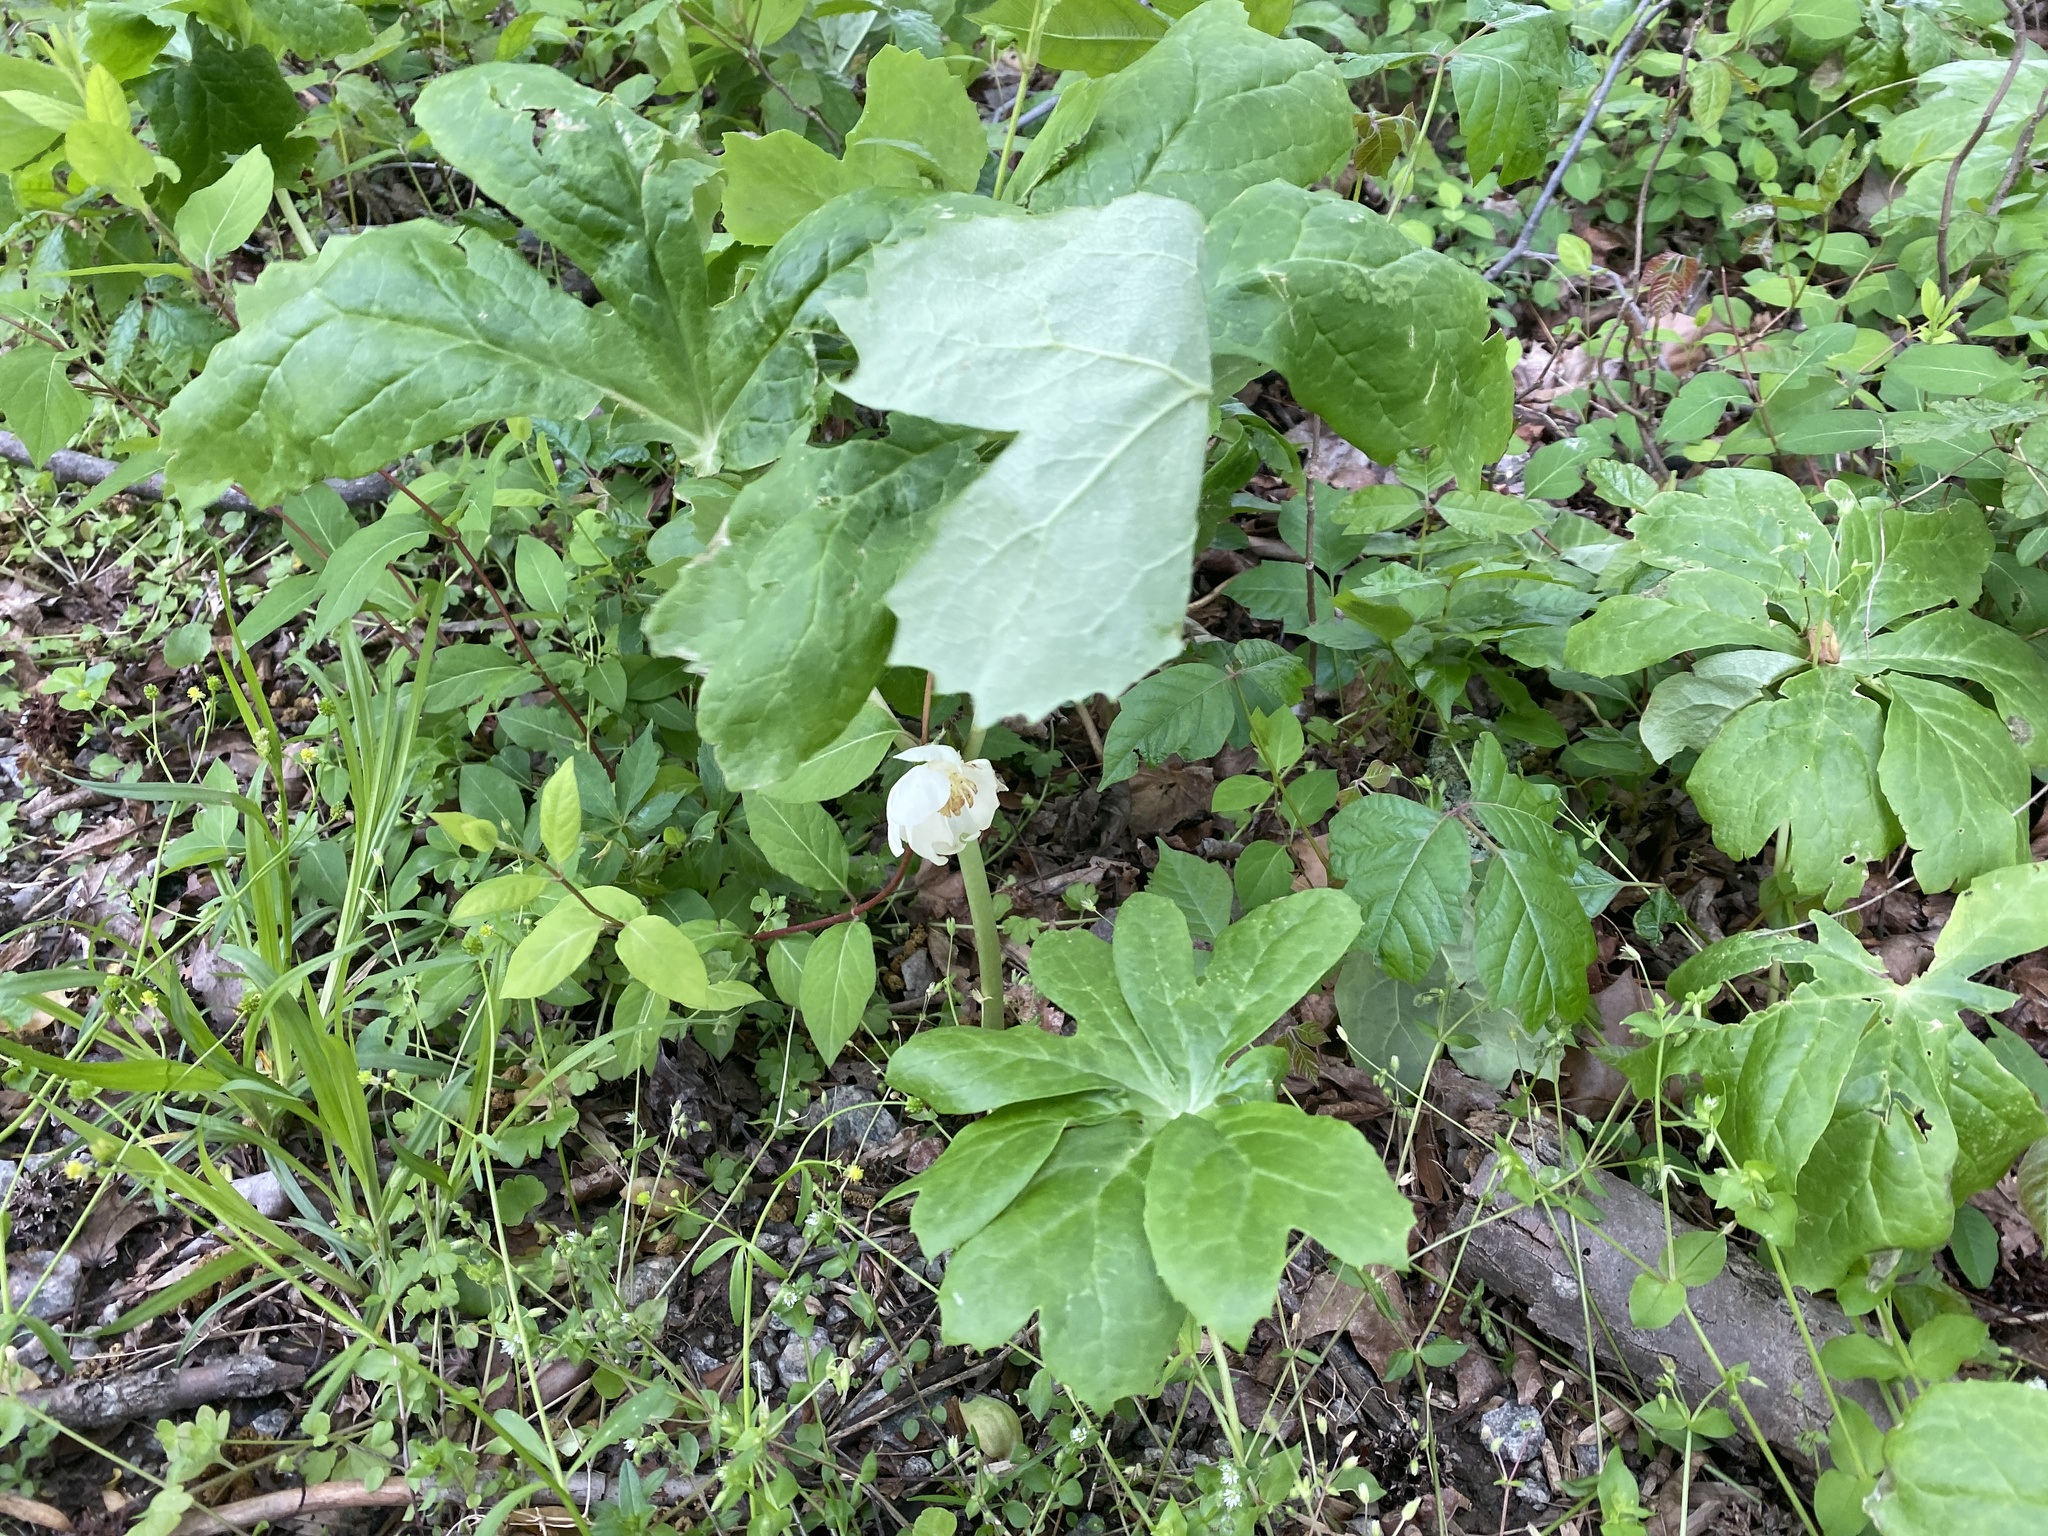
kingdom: Plantae
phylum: Tracheophyta
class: Magnoliopsida
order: Ranunculales
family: Berberidaceae
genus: Podophyllum
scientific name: Podophyllum peltatum
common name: Wild mandrake
